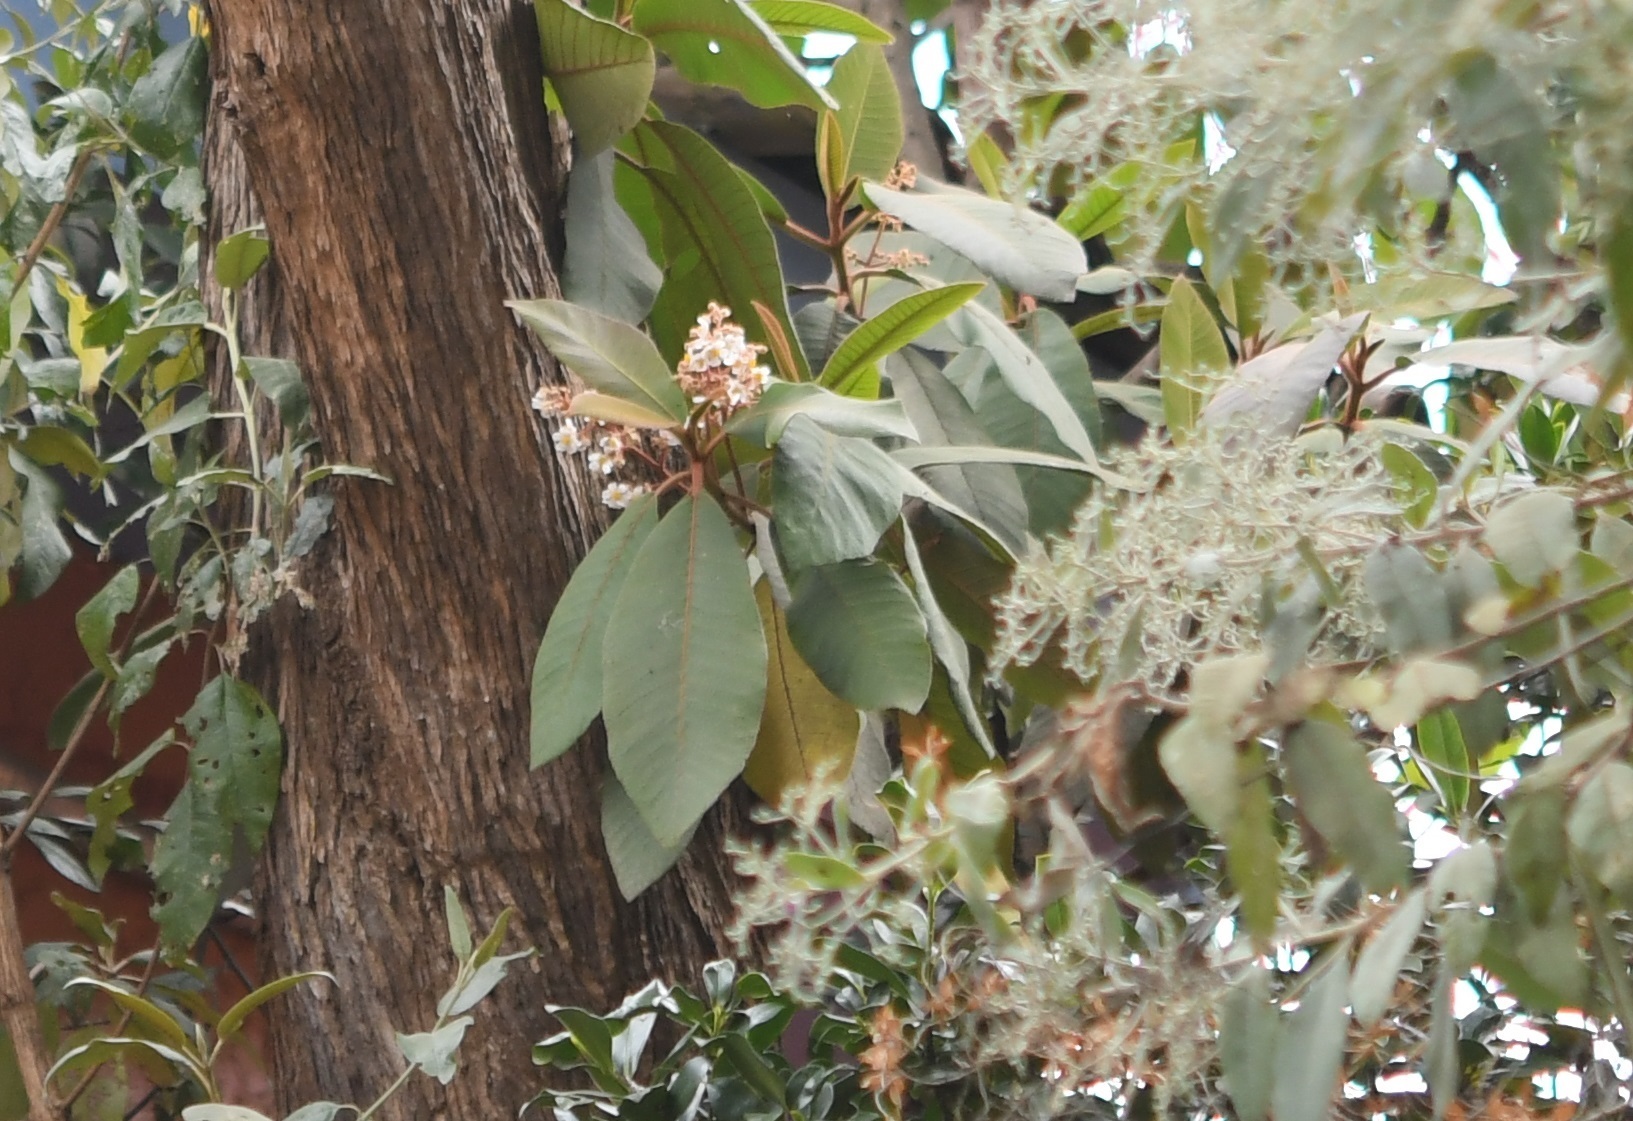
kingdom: Plantae
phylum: Tracheophyta
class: Magnoliopsida
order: Ericales
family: Actinidiaceae
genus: Saurauia
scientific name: Saurauia scabrida
